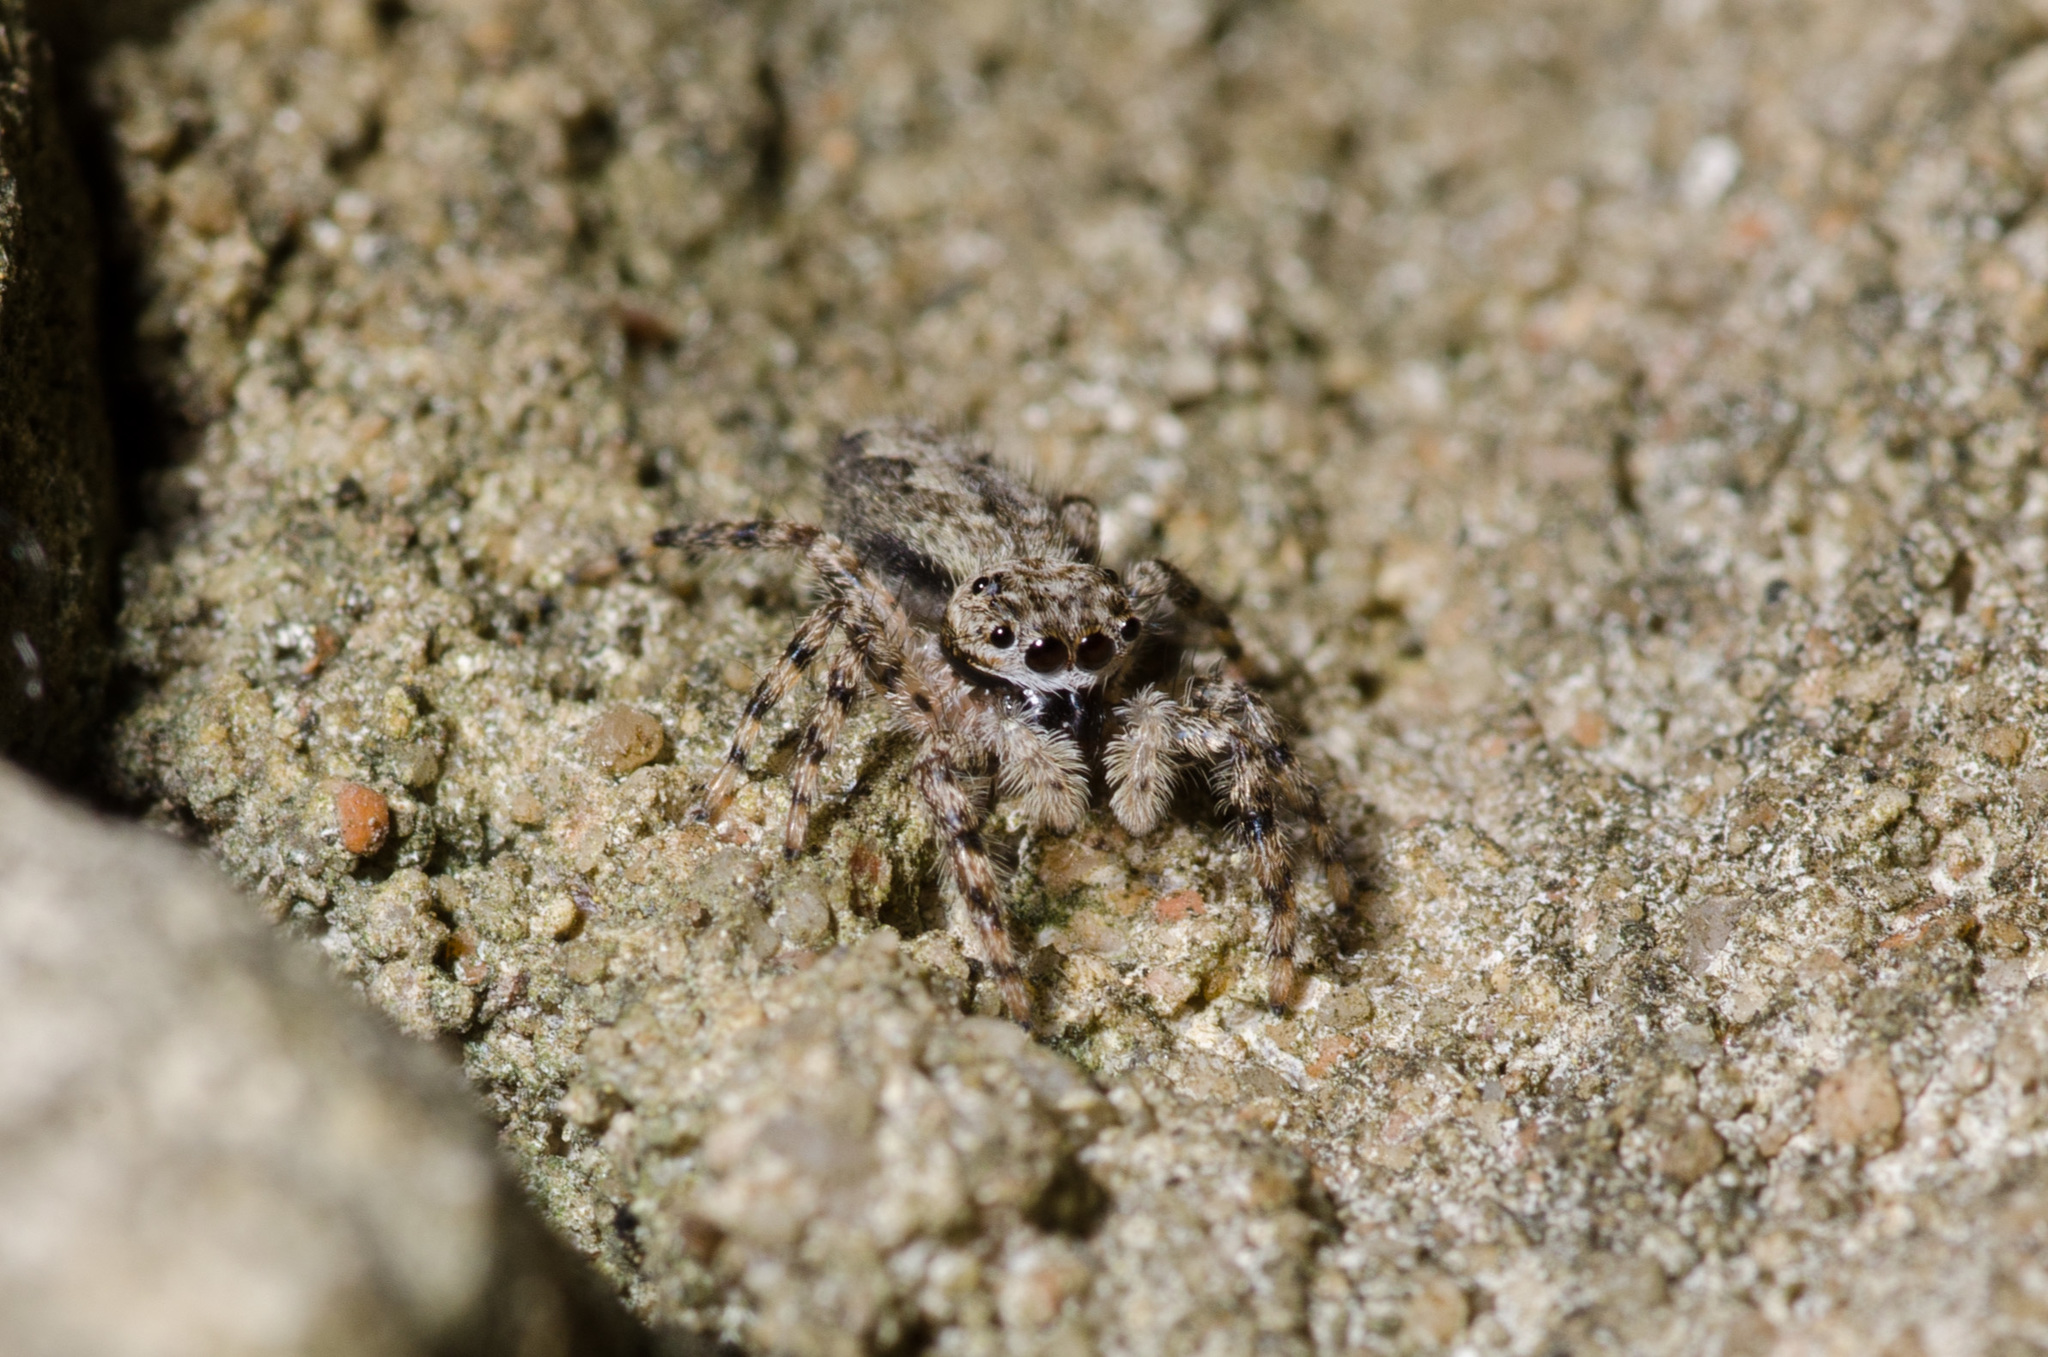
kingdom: Animalia
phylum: Arthropoda
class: Arachnida
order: Araneae
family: Salticidae
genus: Platycryptus
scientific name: Platycryptus undatus
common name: Tan jumping spider
